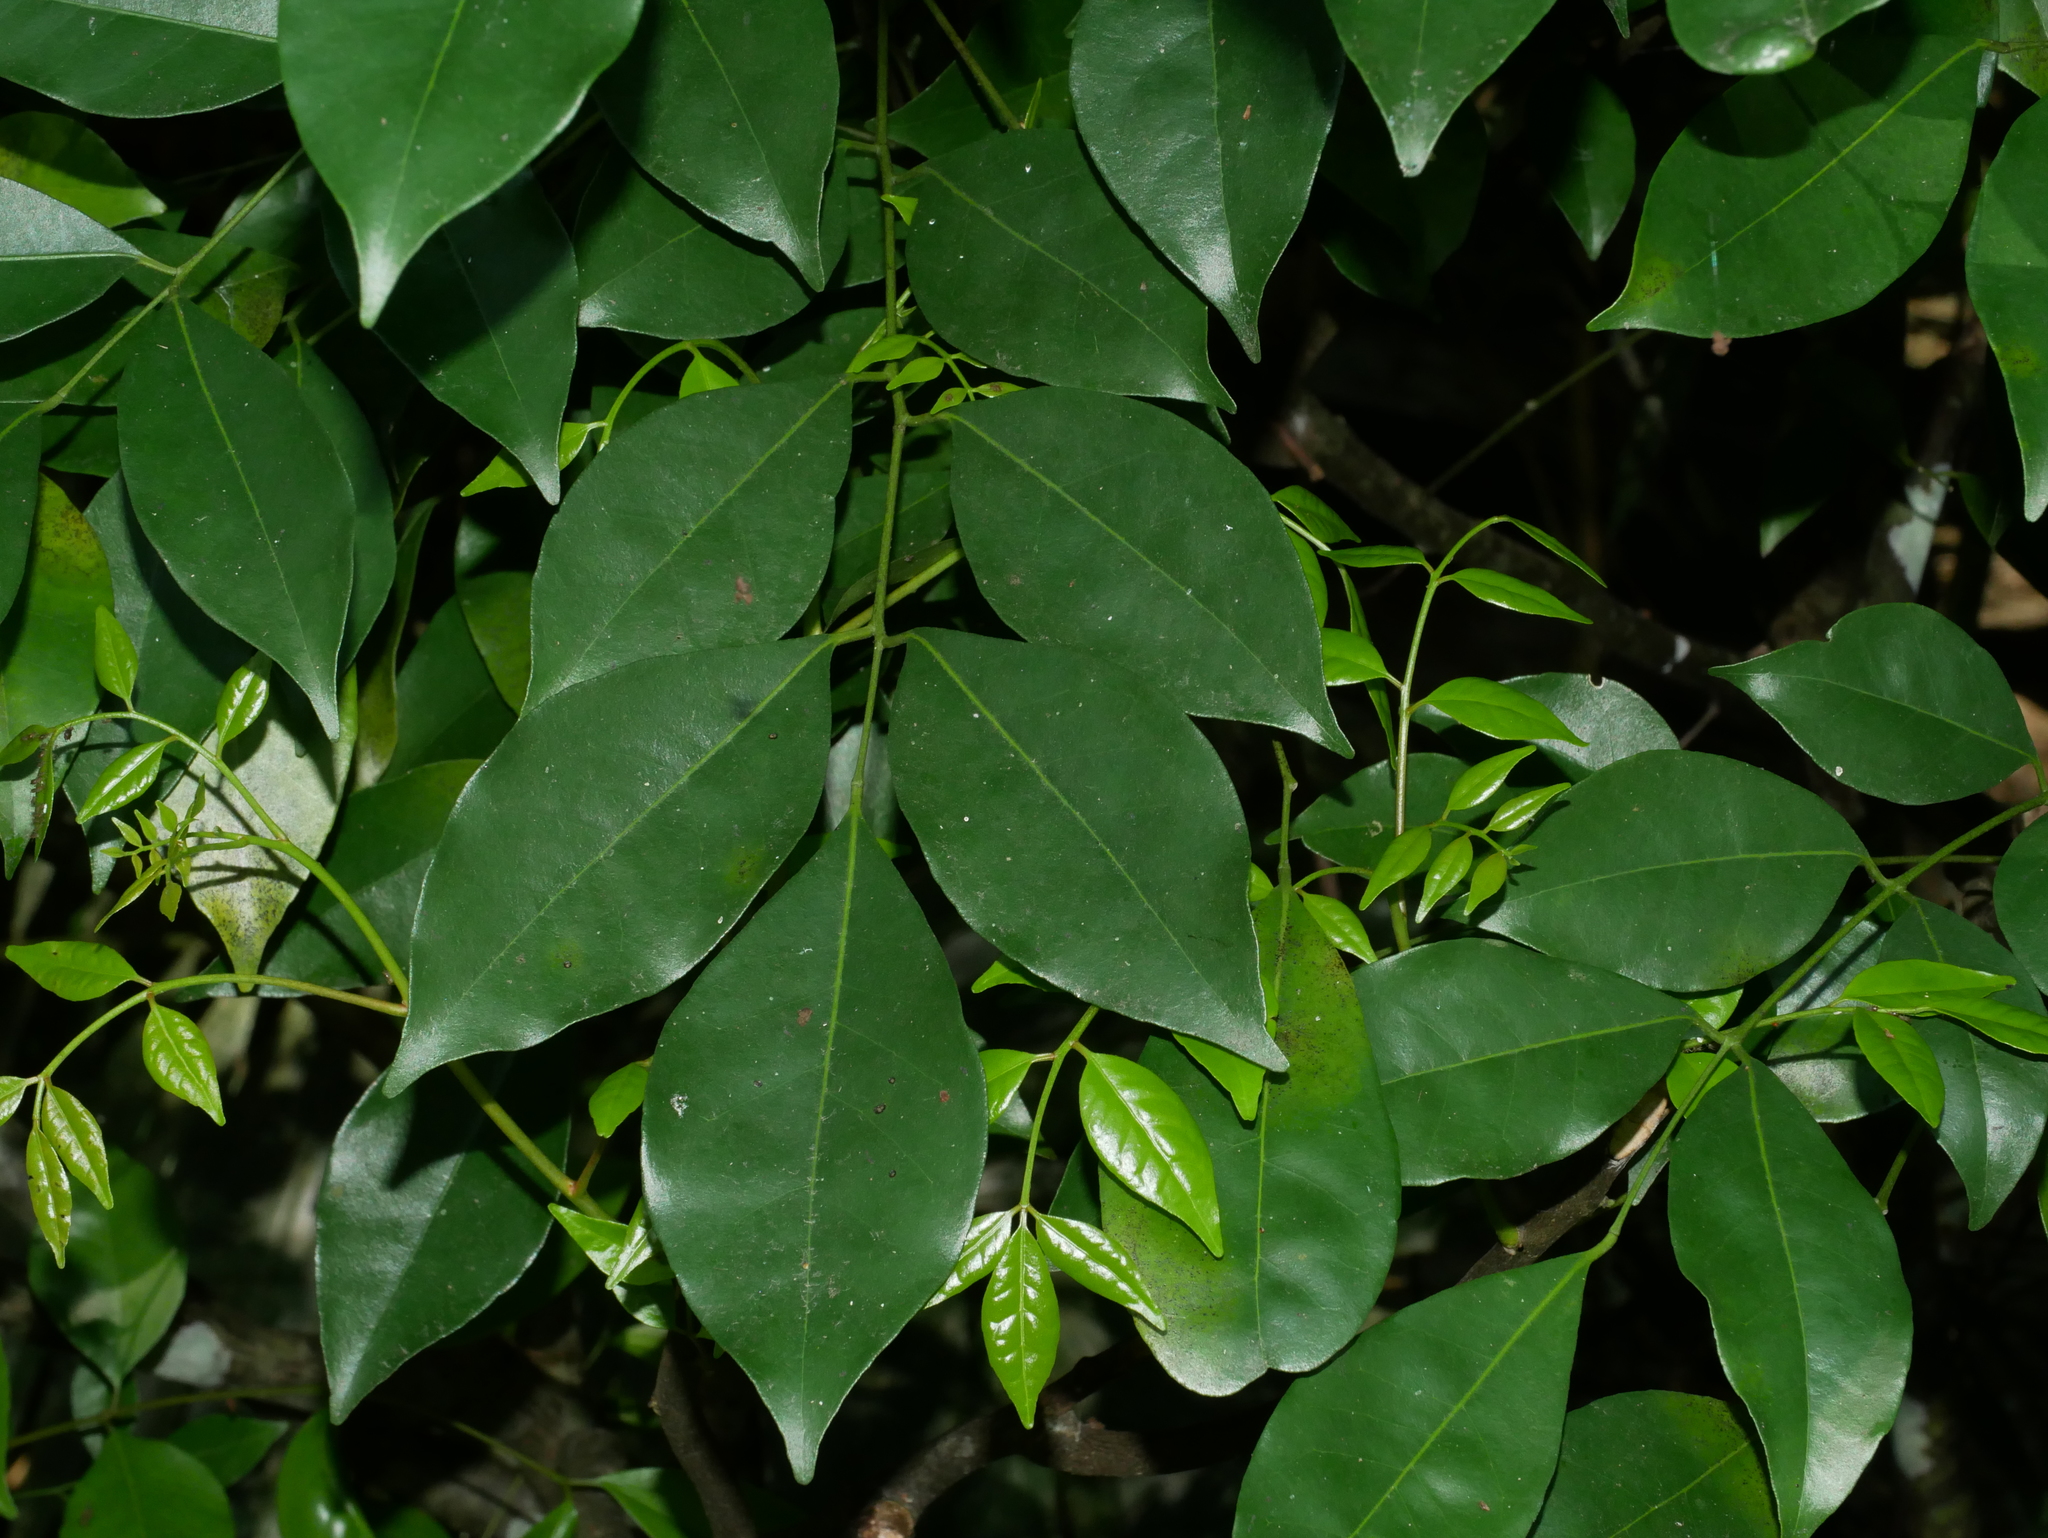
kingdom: Plantae
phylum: Tracheophyta
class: Magnoliopsida
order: Sapindales
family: Rutaceae
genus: Murraya
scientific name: Murraya euchrestifolia
